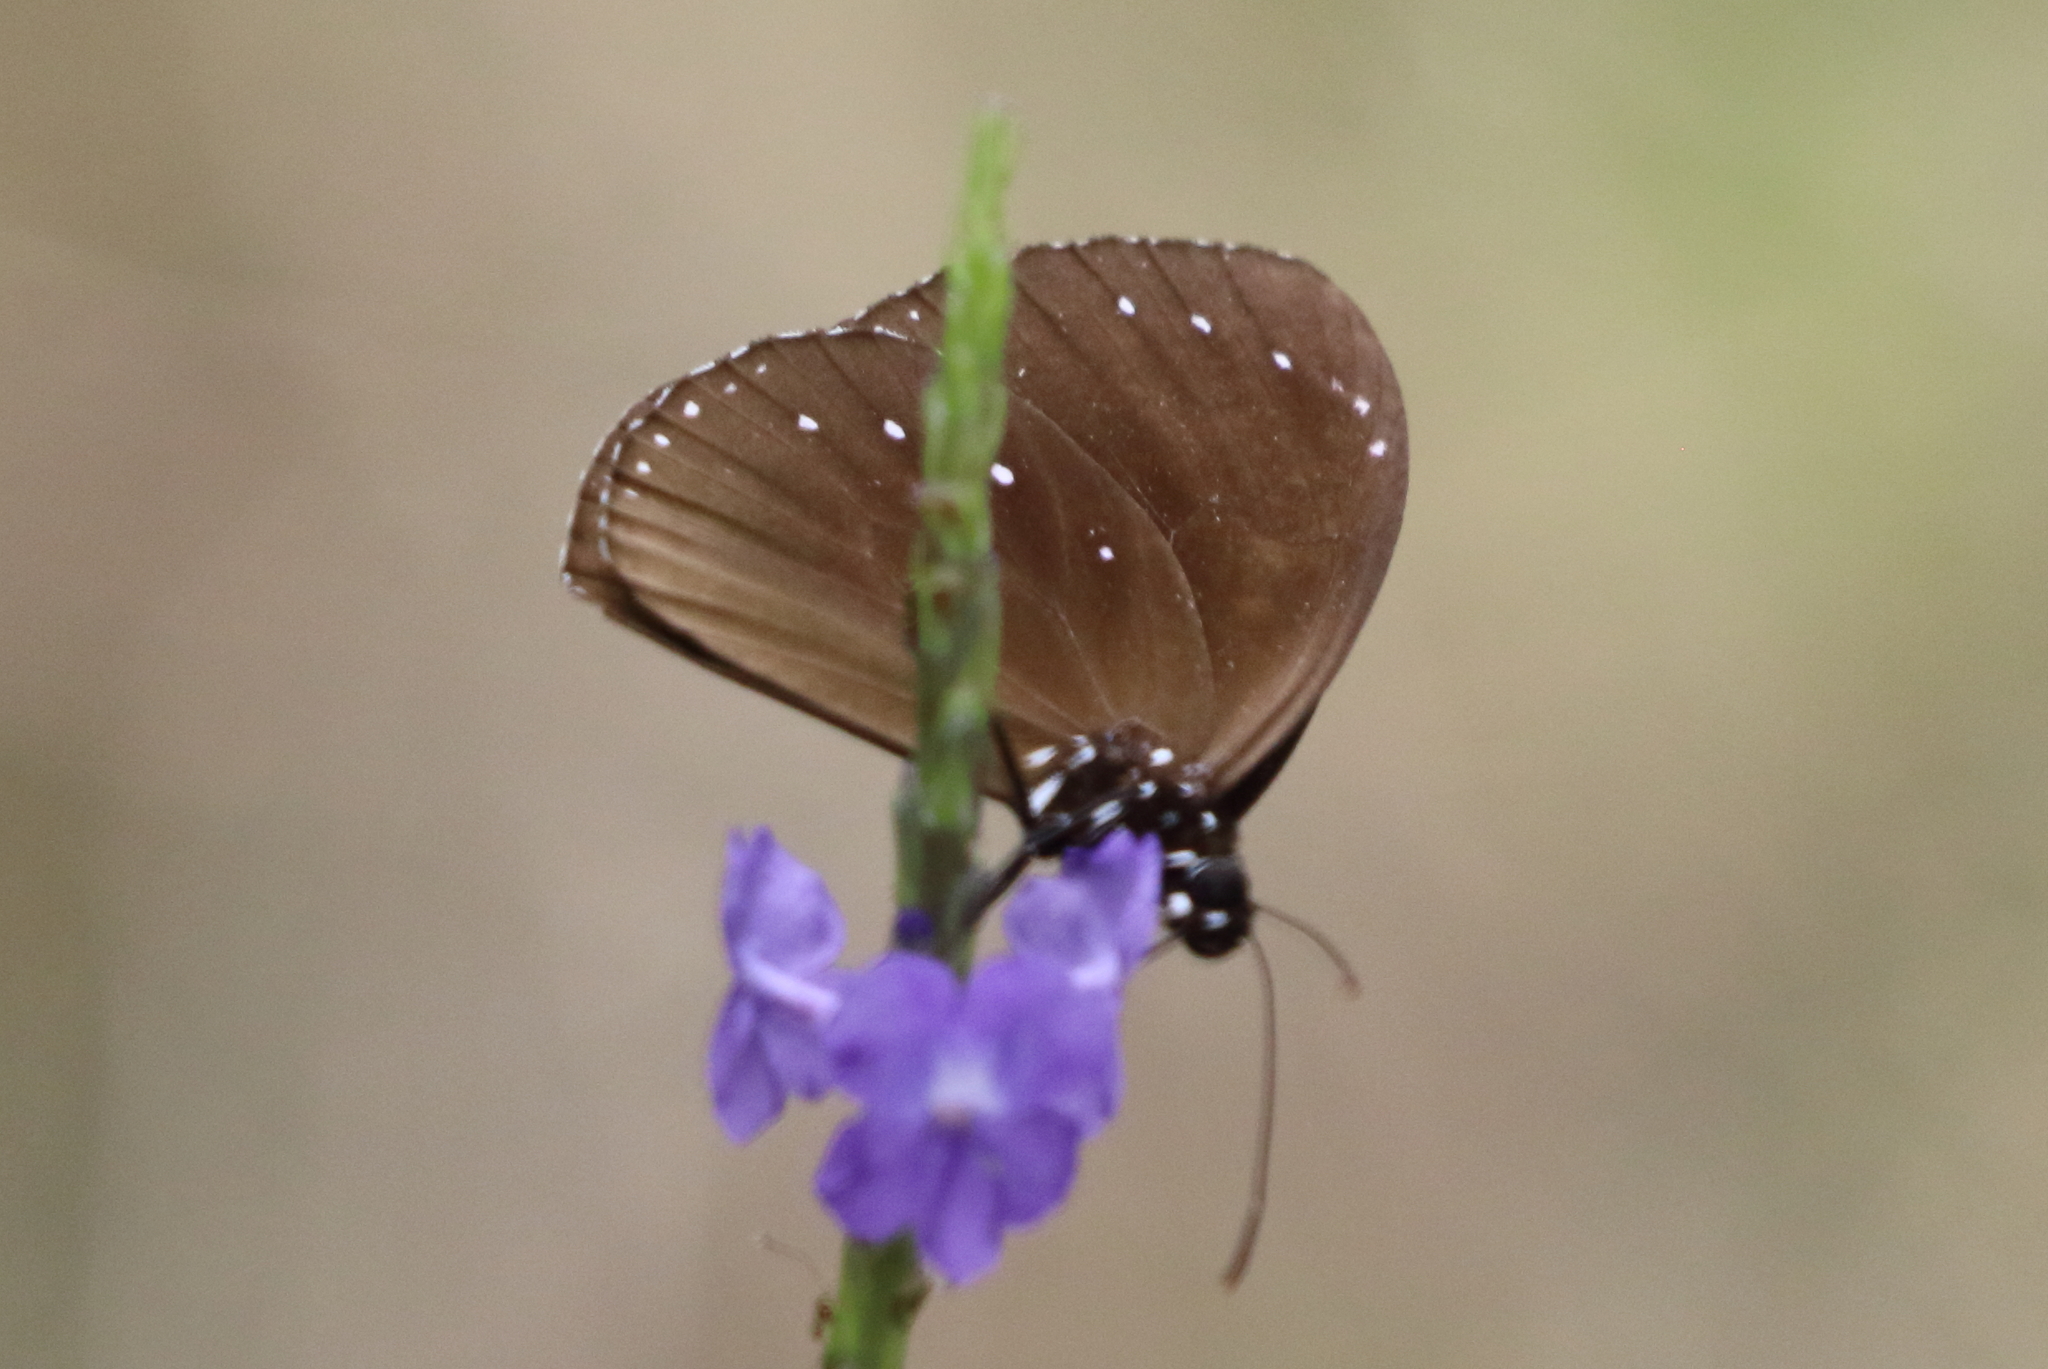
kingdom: Animalia
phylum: Arthropoda
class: Insecta
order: Lepidoptera
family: Nymphalidae
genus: Euploea
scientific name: Euploea tulliolus
